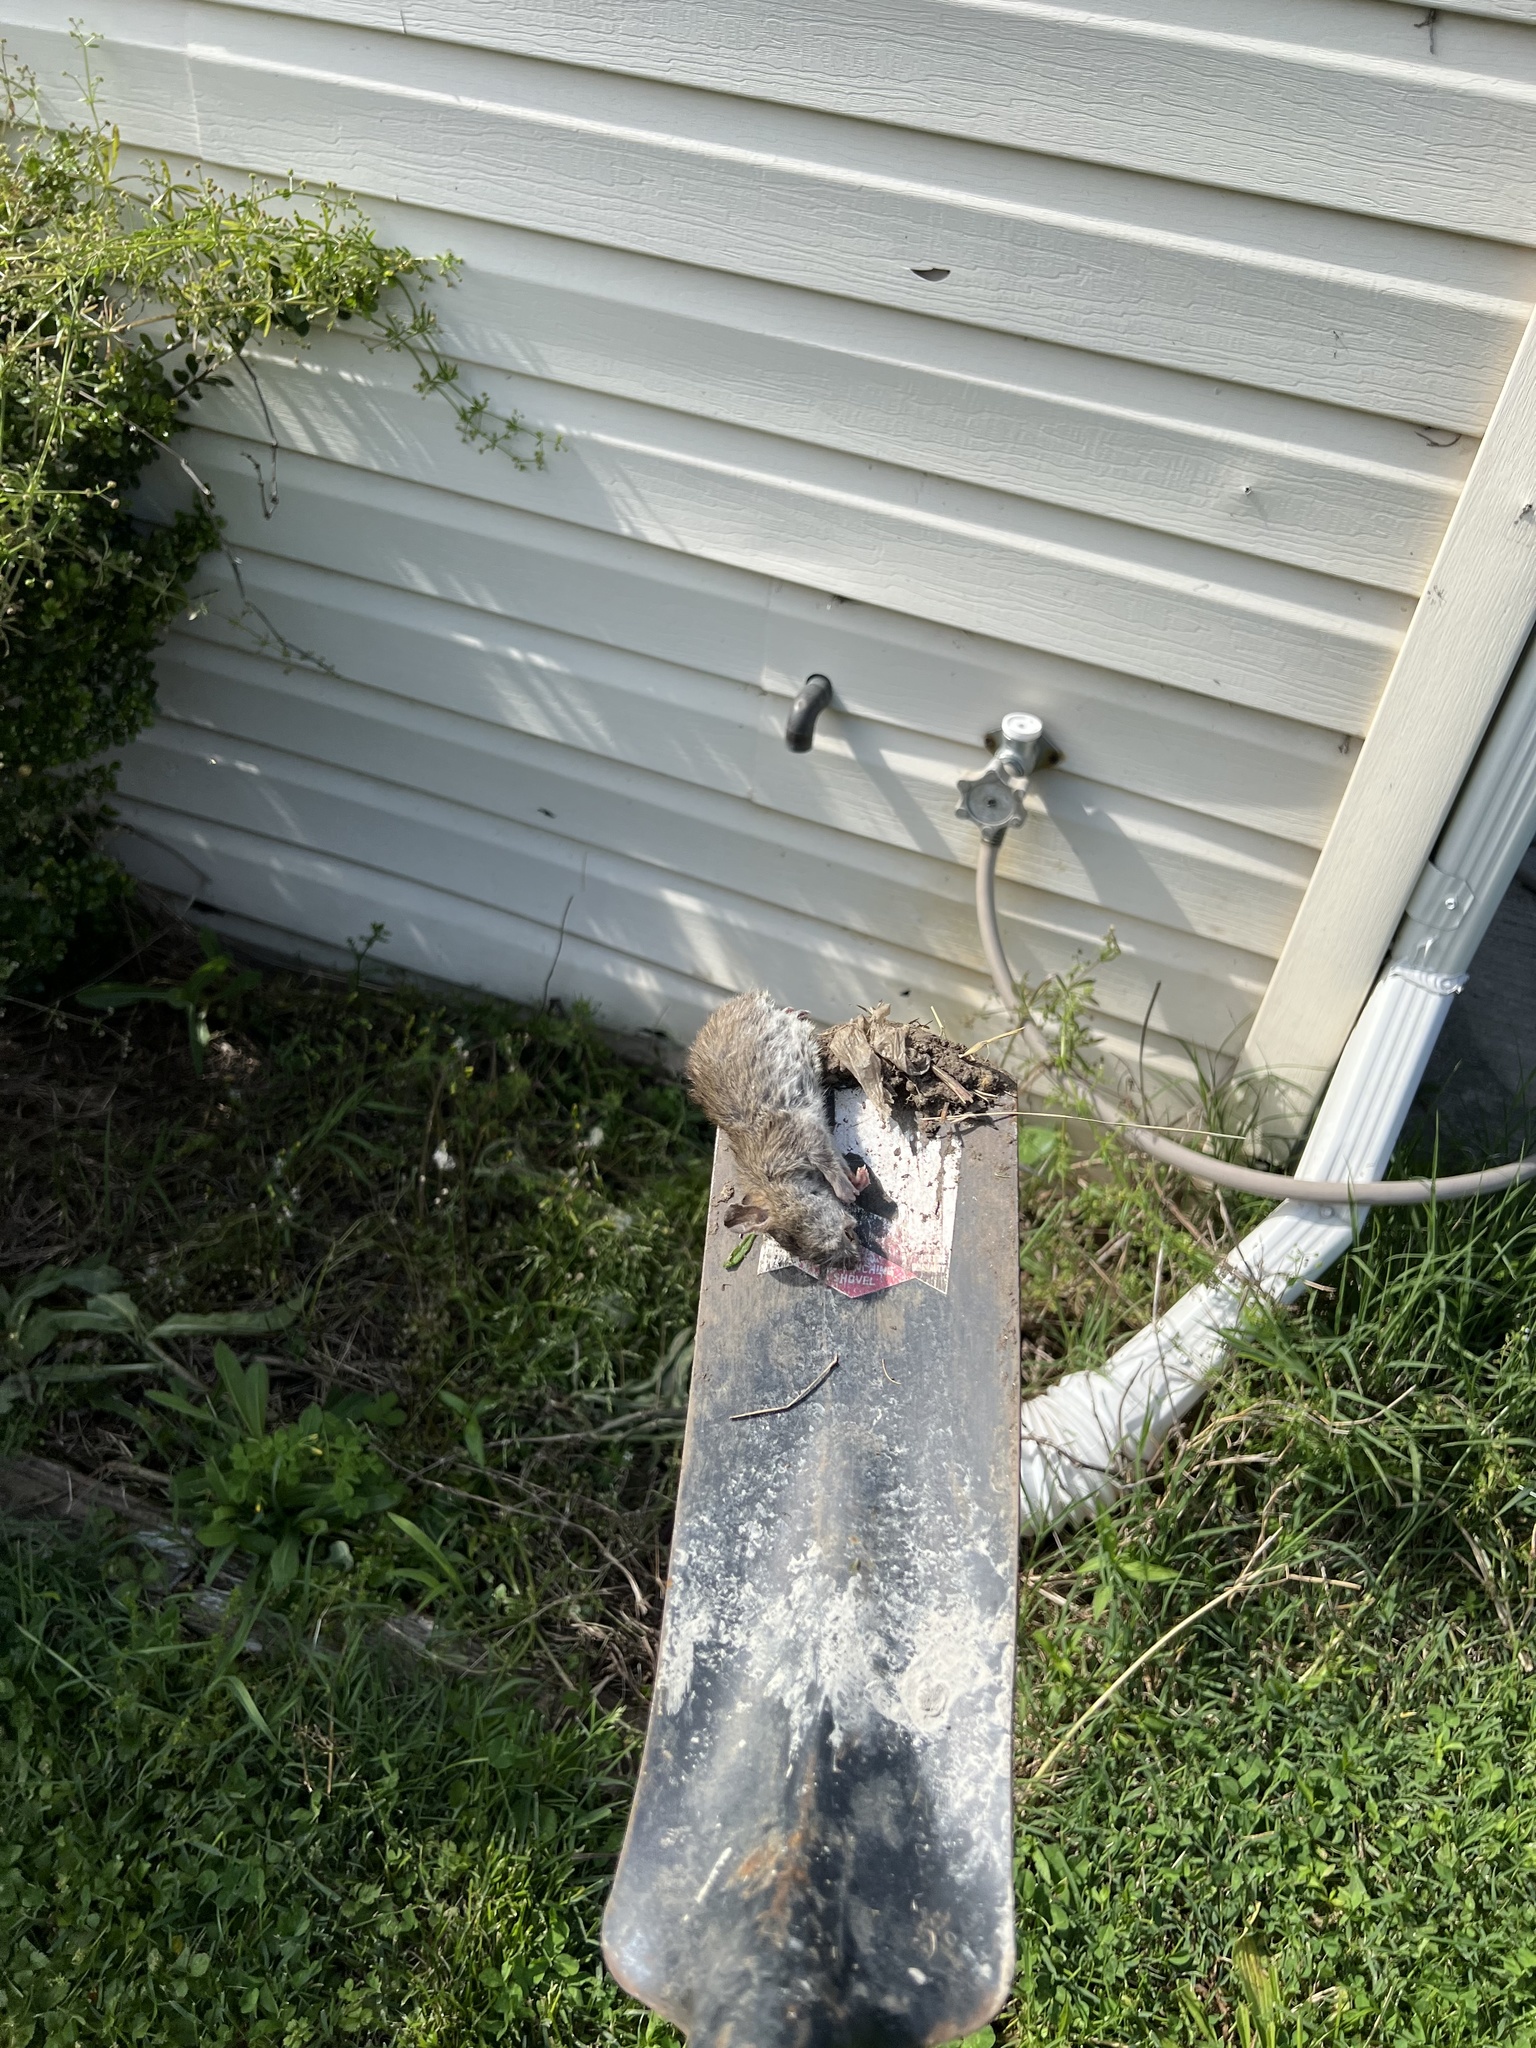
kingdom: Animalia
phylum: Chordata
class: Mammalia
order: Rodentia
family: Muridae
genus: Rattus
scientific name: Rattus norvegicus
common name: Brown rat
